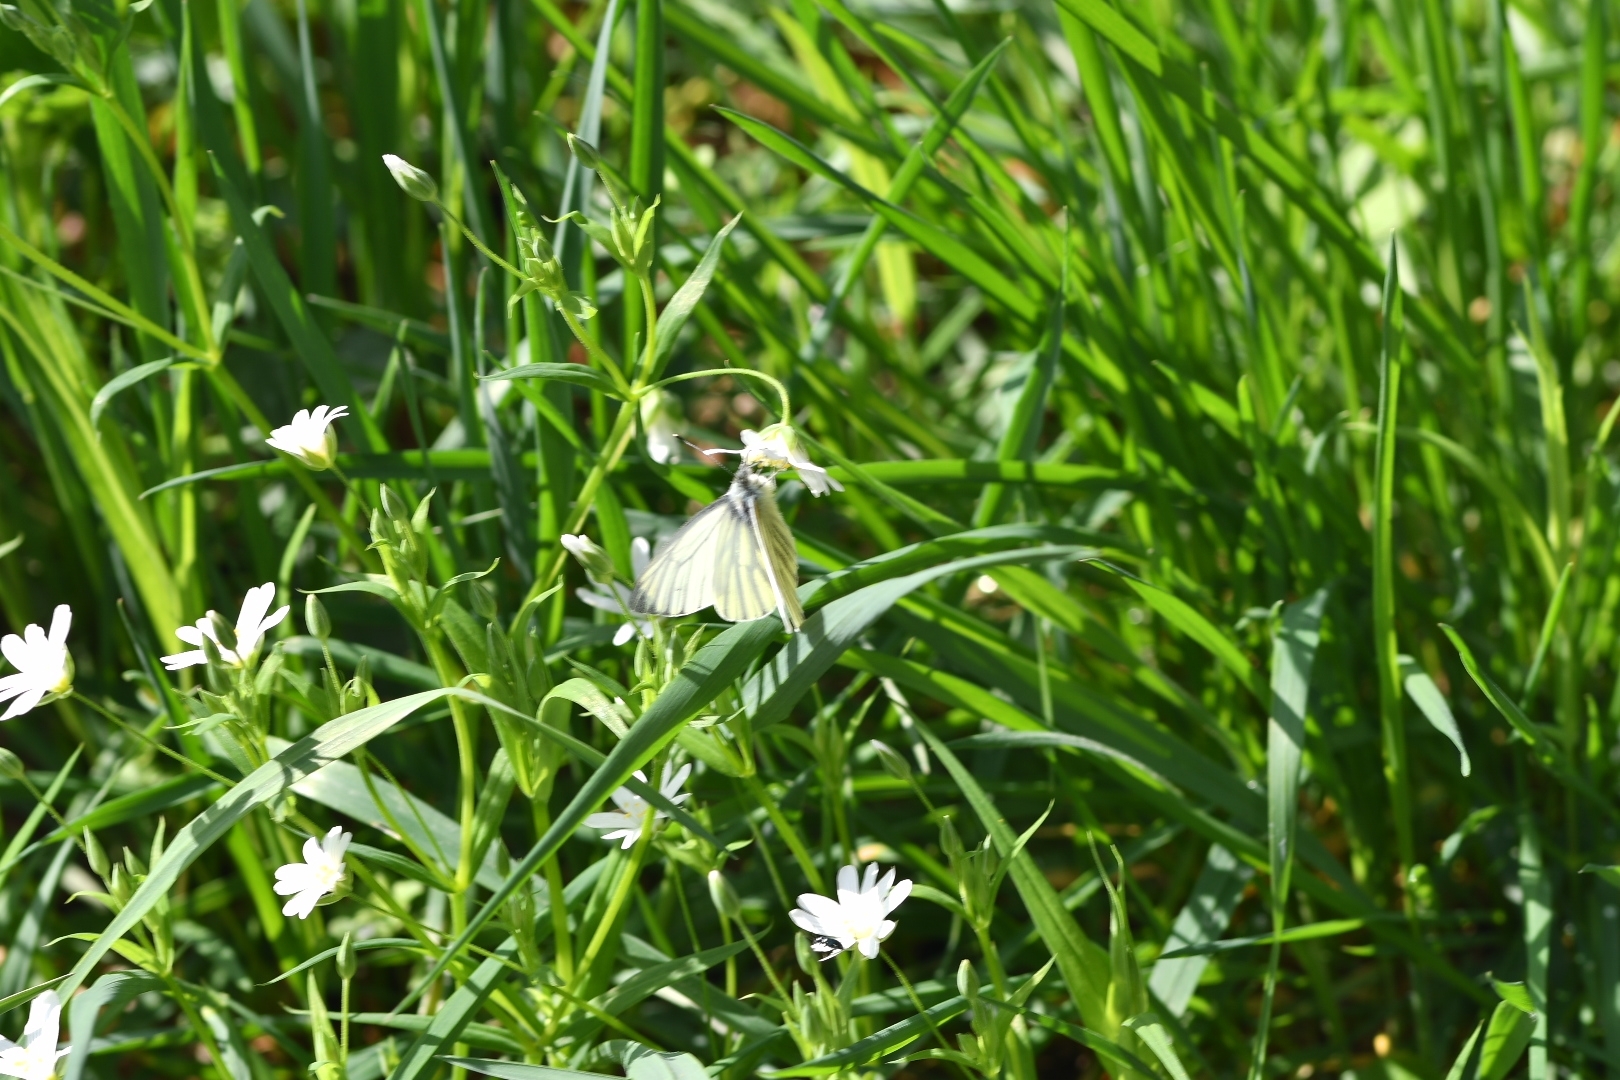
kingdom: Animalia
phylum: Arthropoda
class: Insecta
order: Lepidoptera
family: Pieridae
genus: Pieris
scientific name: Pieris napi
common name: Green-veined white
